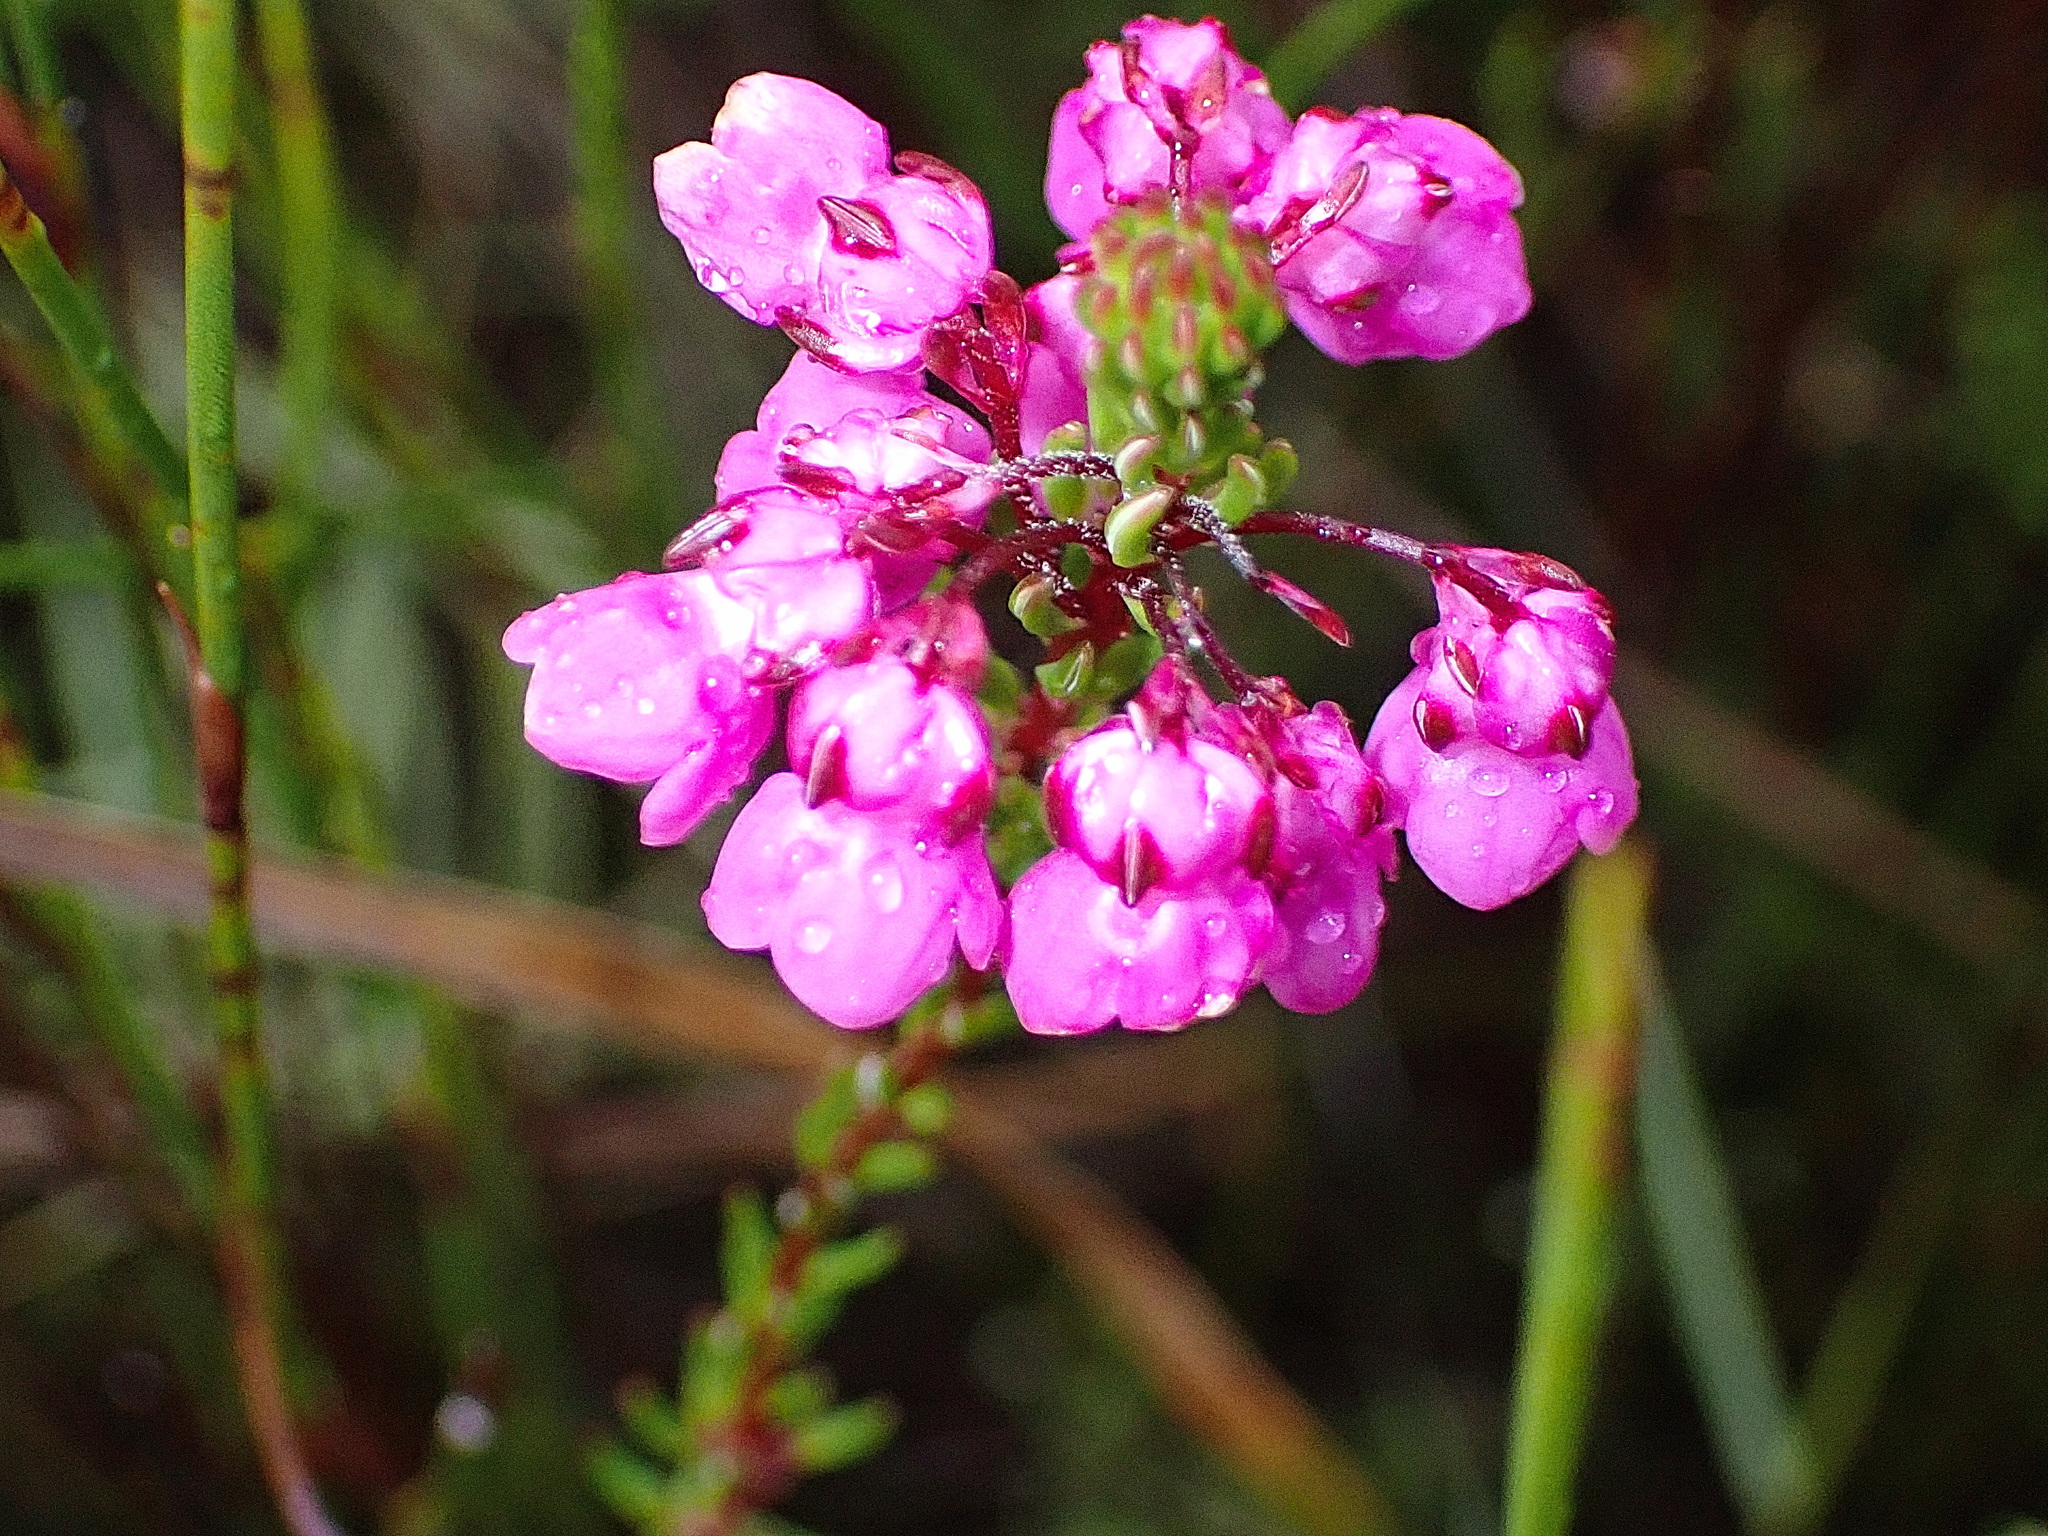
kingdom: Plantae
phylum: Tracheophyta
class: Magnoliopsida
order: Ericales
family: Ericaceae
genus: Erica
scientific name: Erica cubica
